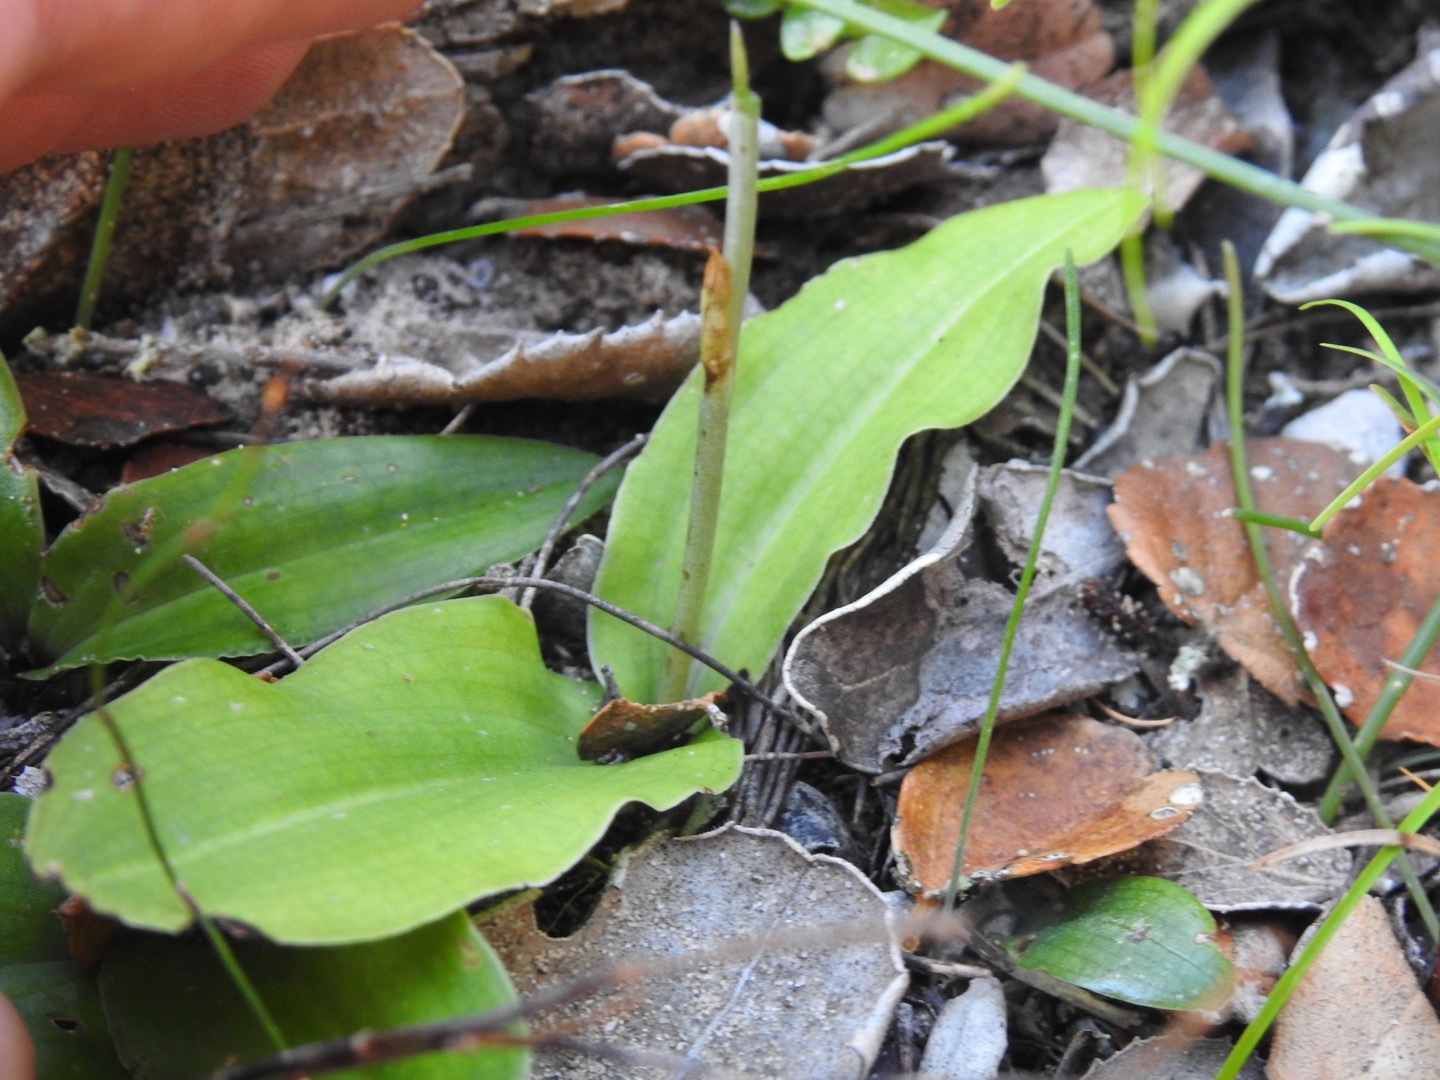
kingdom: Plantae
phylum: Tracheophyta
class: Liliopsida
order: Asparagales
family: Orchidaceae
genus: Habenaria
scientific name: Habenaria arenaria
